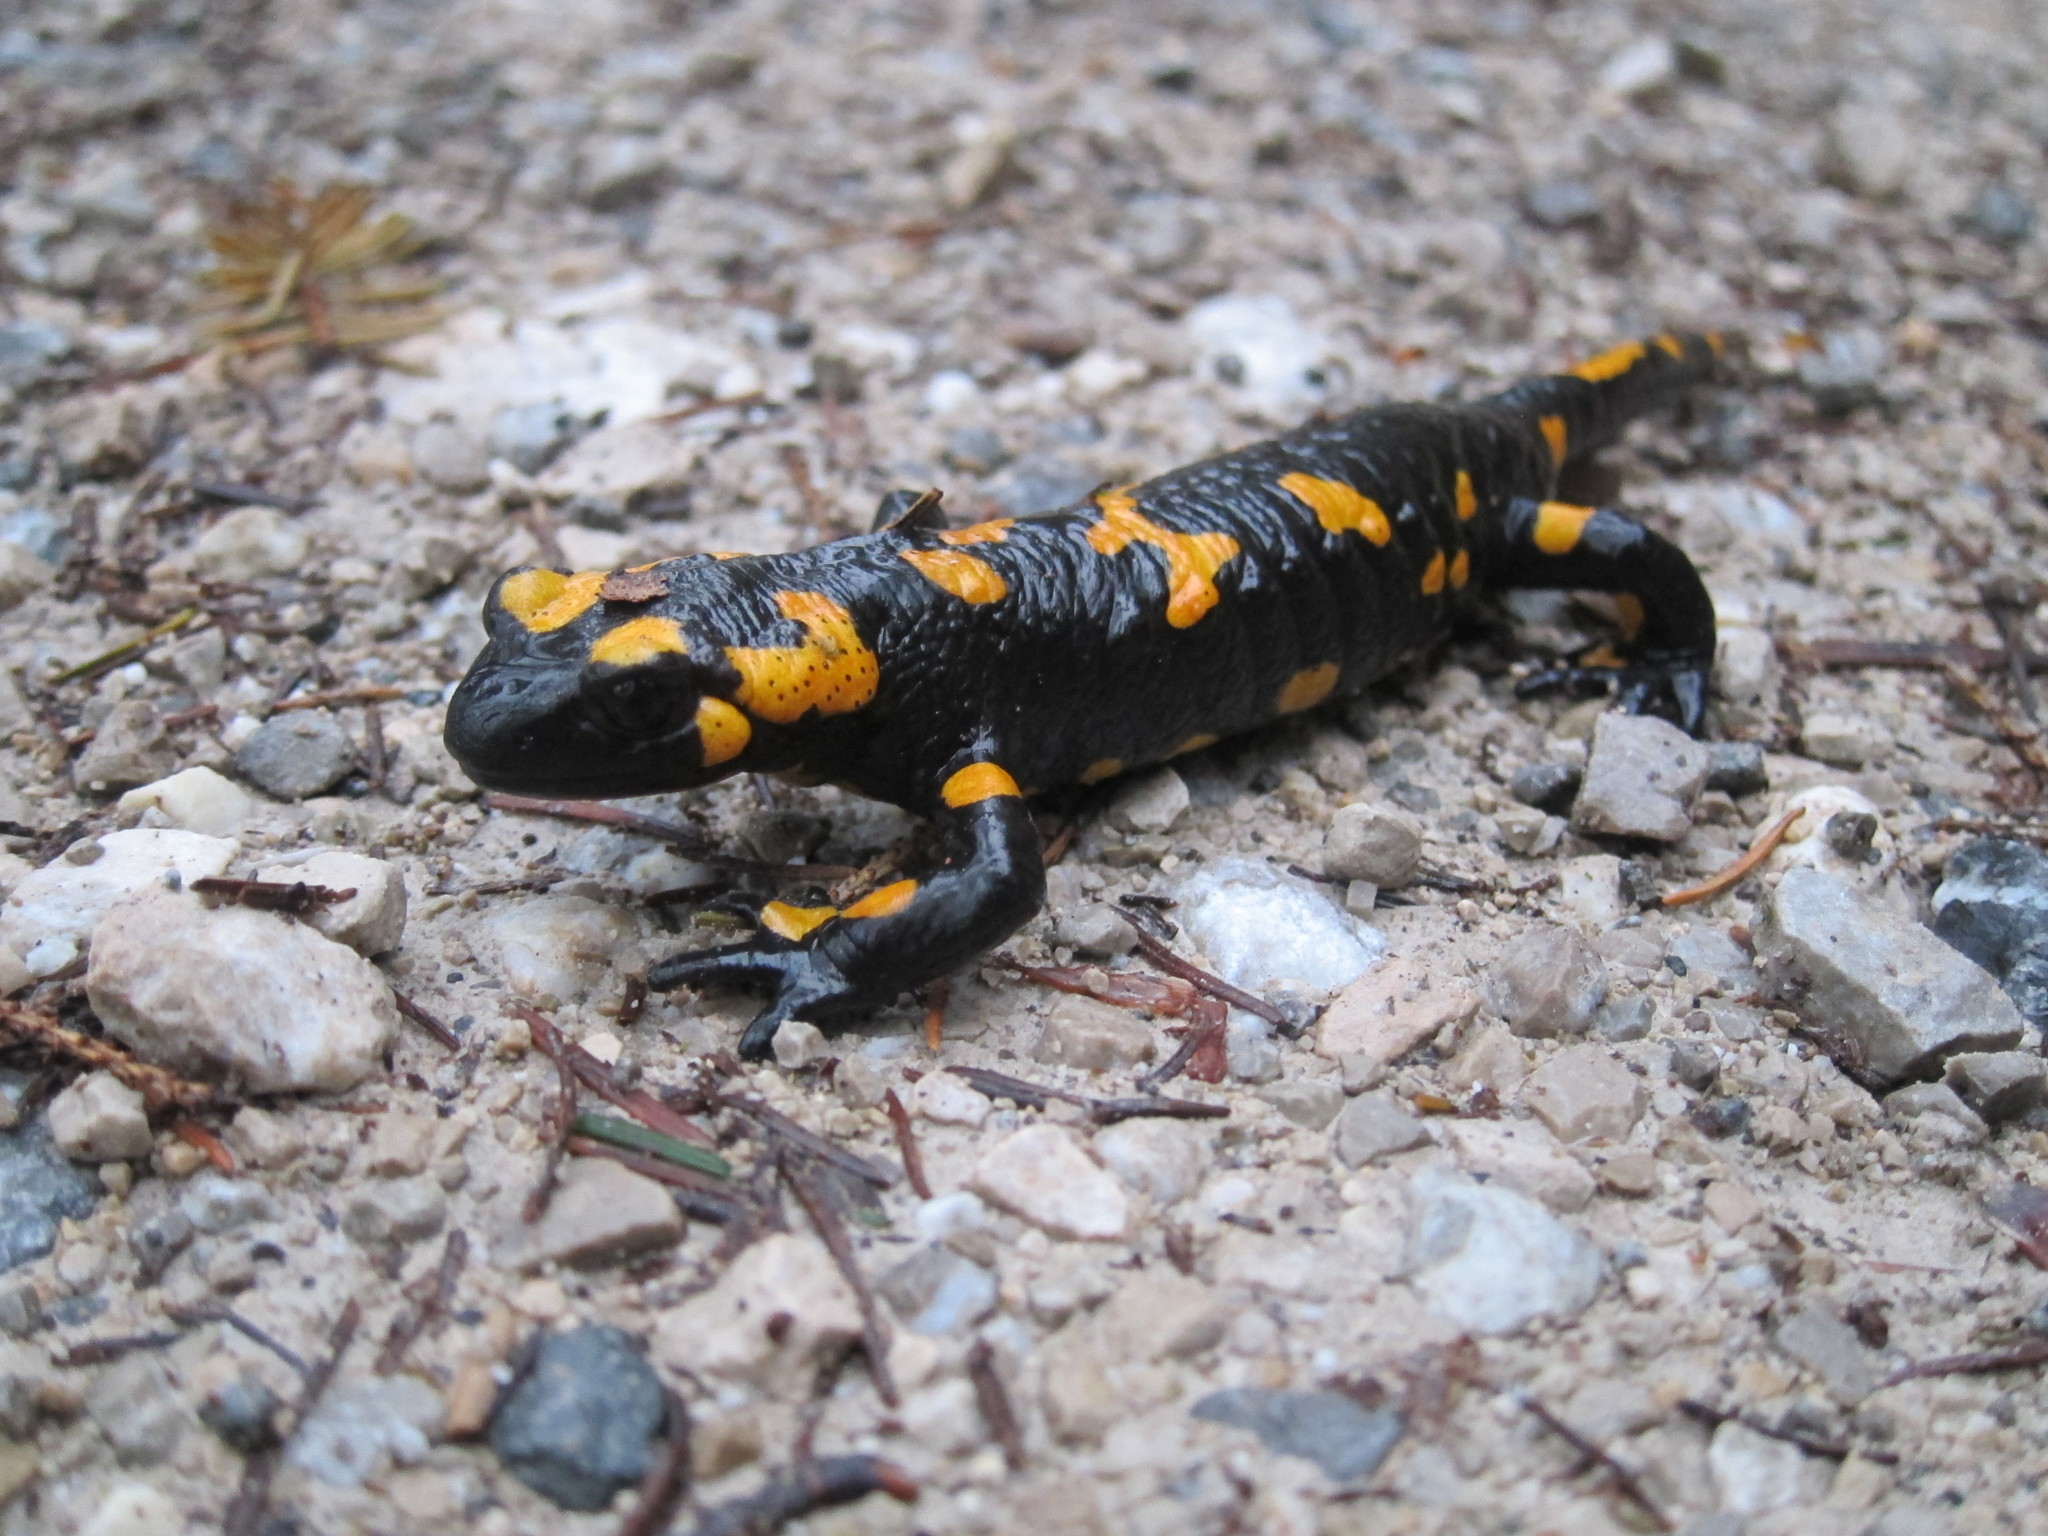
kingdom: Animalia
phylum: Chordata
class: Amphibia
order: Caudata
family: Salamandridae
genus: Salamandra
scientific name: Salamandra salamandra
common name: Fire salamander
